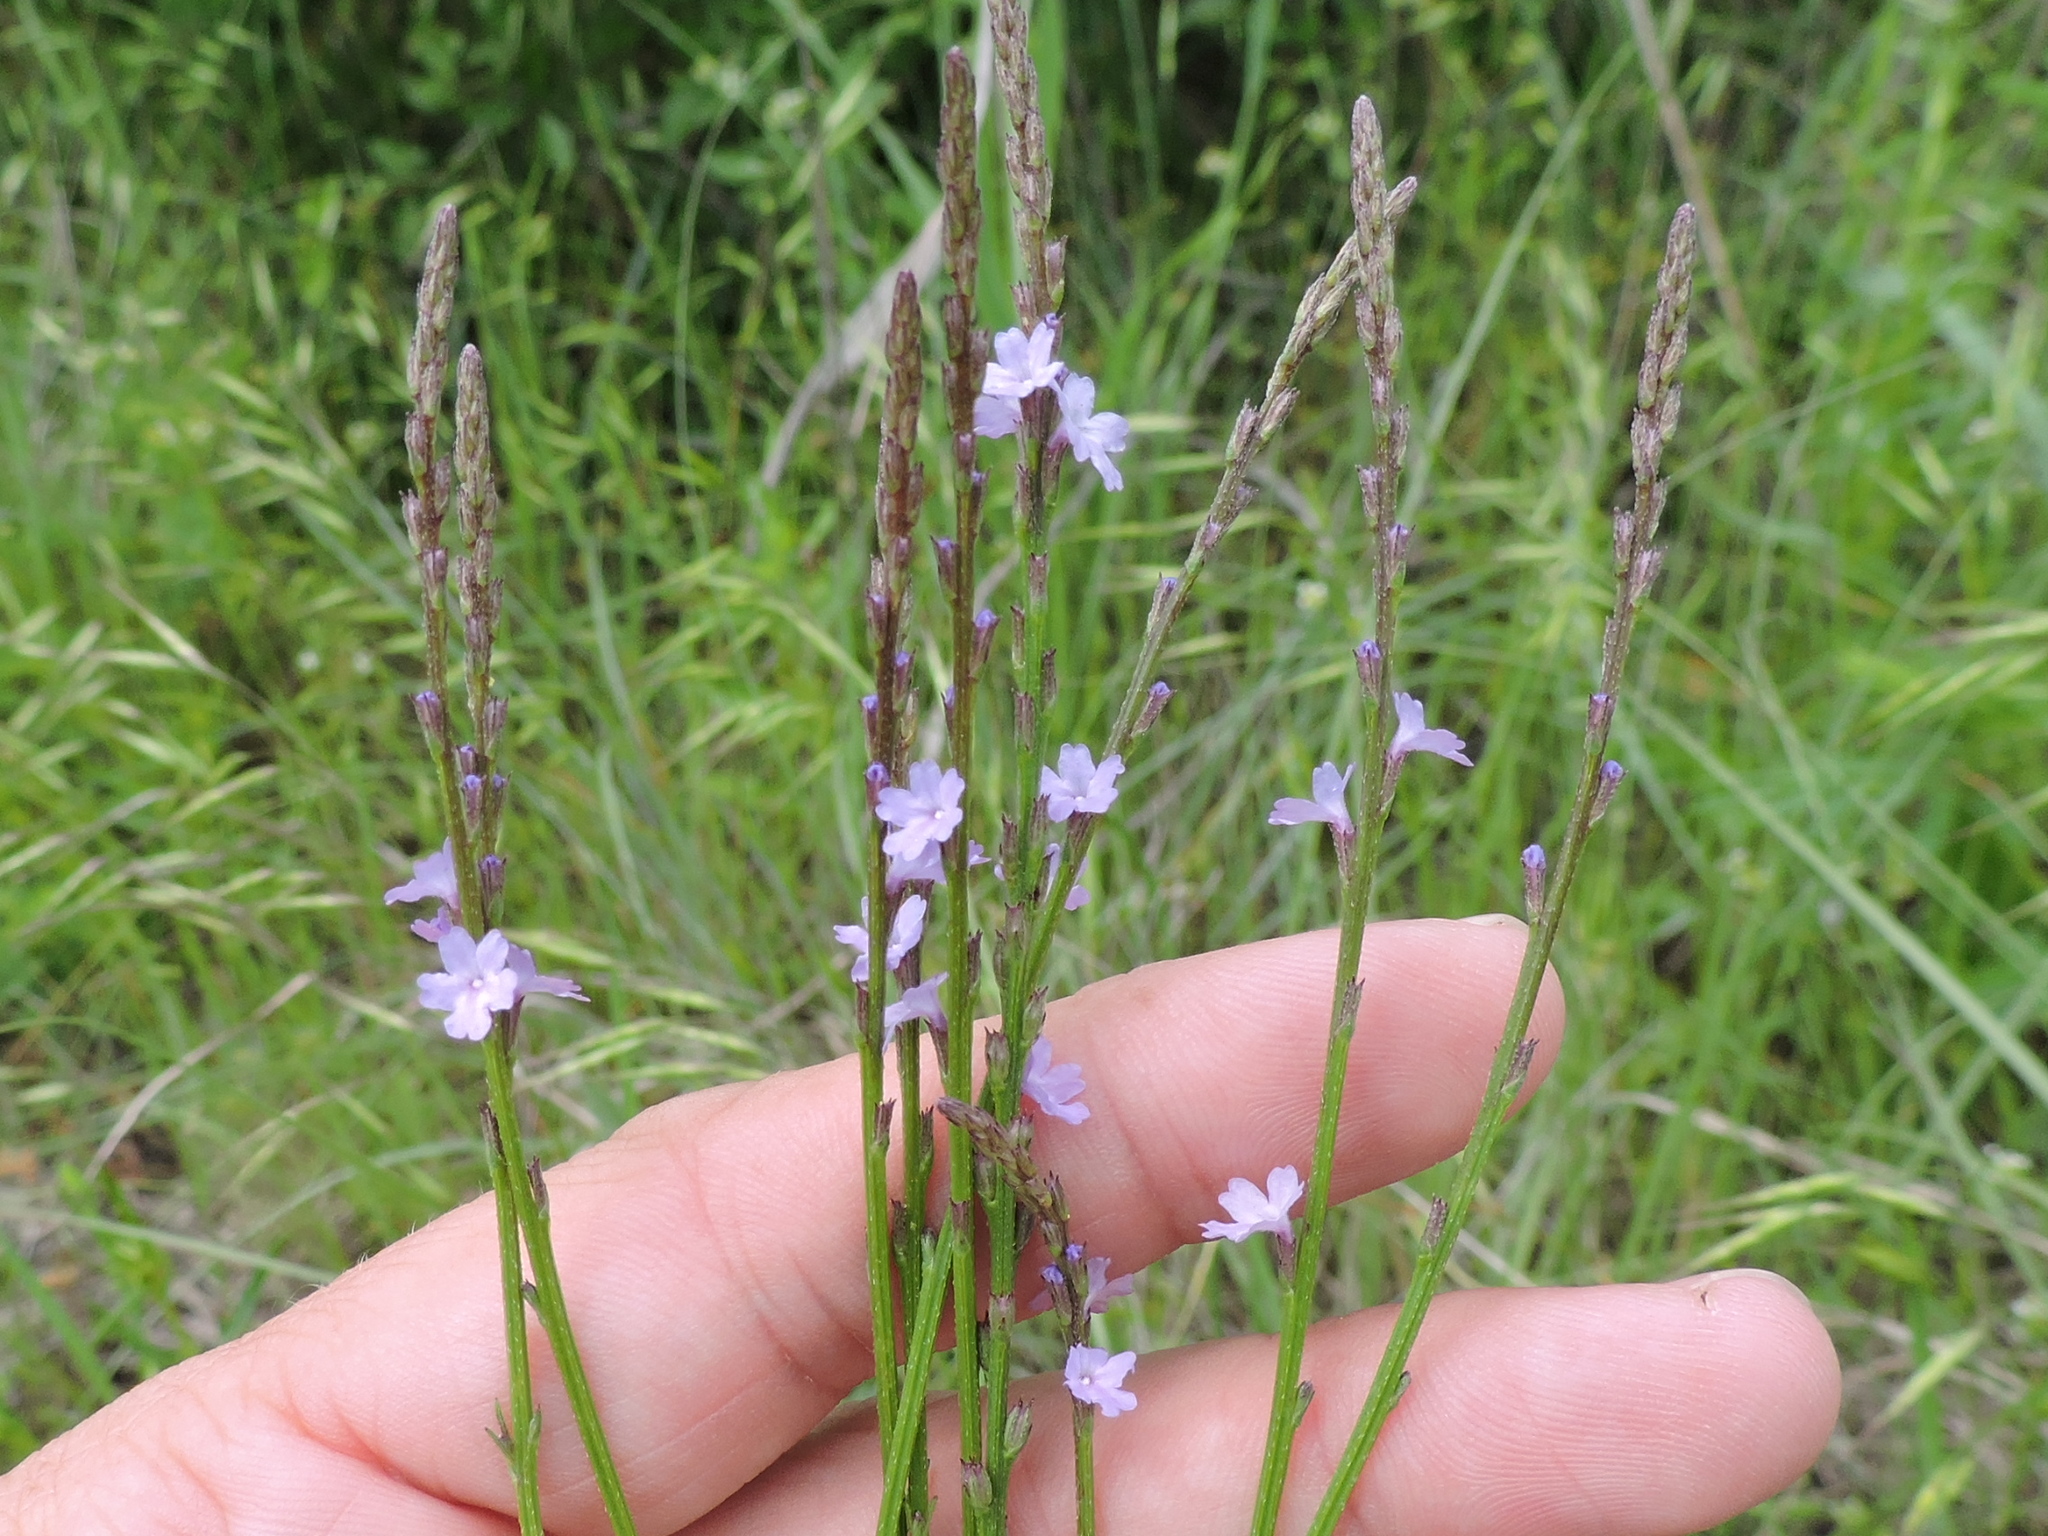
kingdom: Plantae
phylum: Tracheophyta
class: Magnoliopsida
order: Lamiales
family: Verbenaceae
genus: Verbena
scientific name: Verbena halei
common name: Texas vervain
